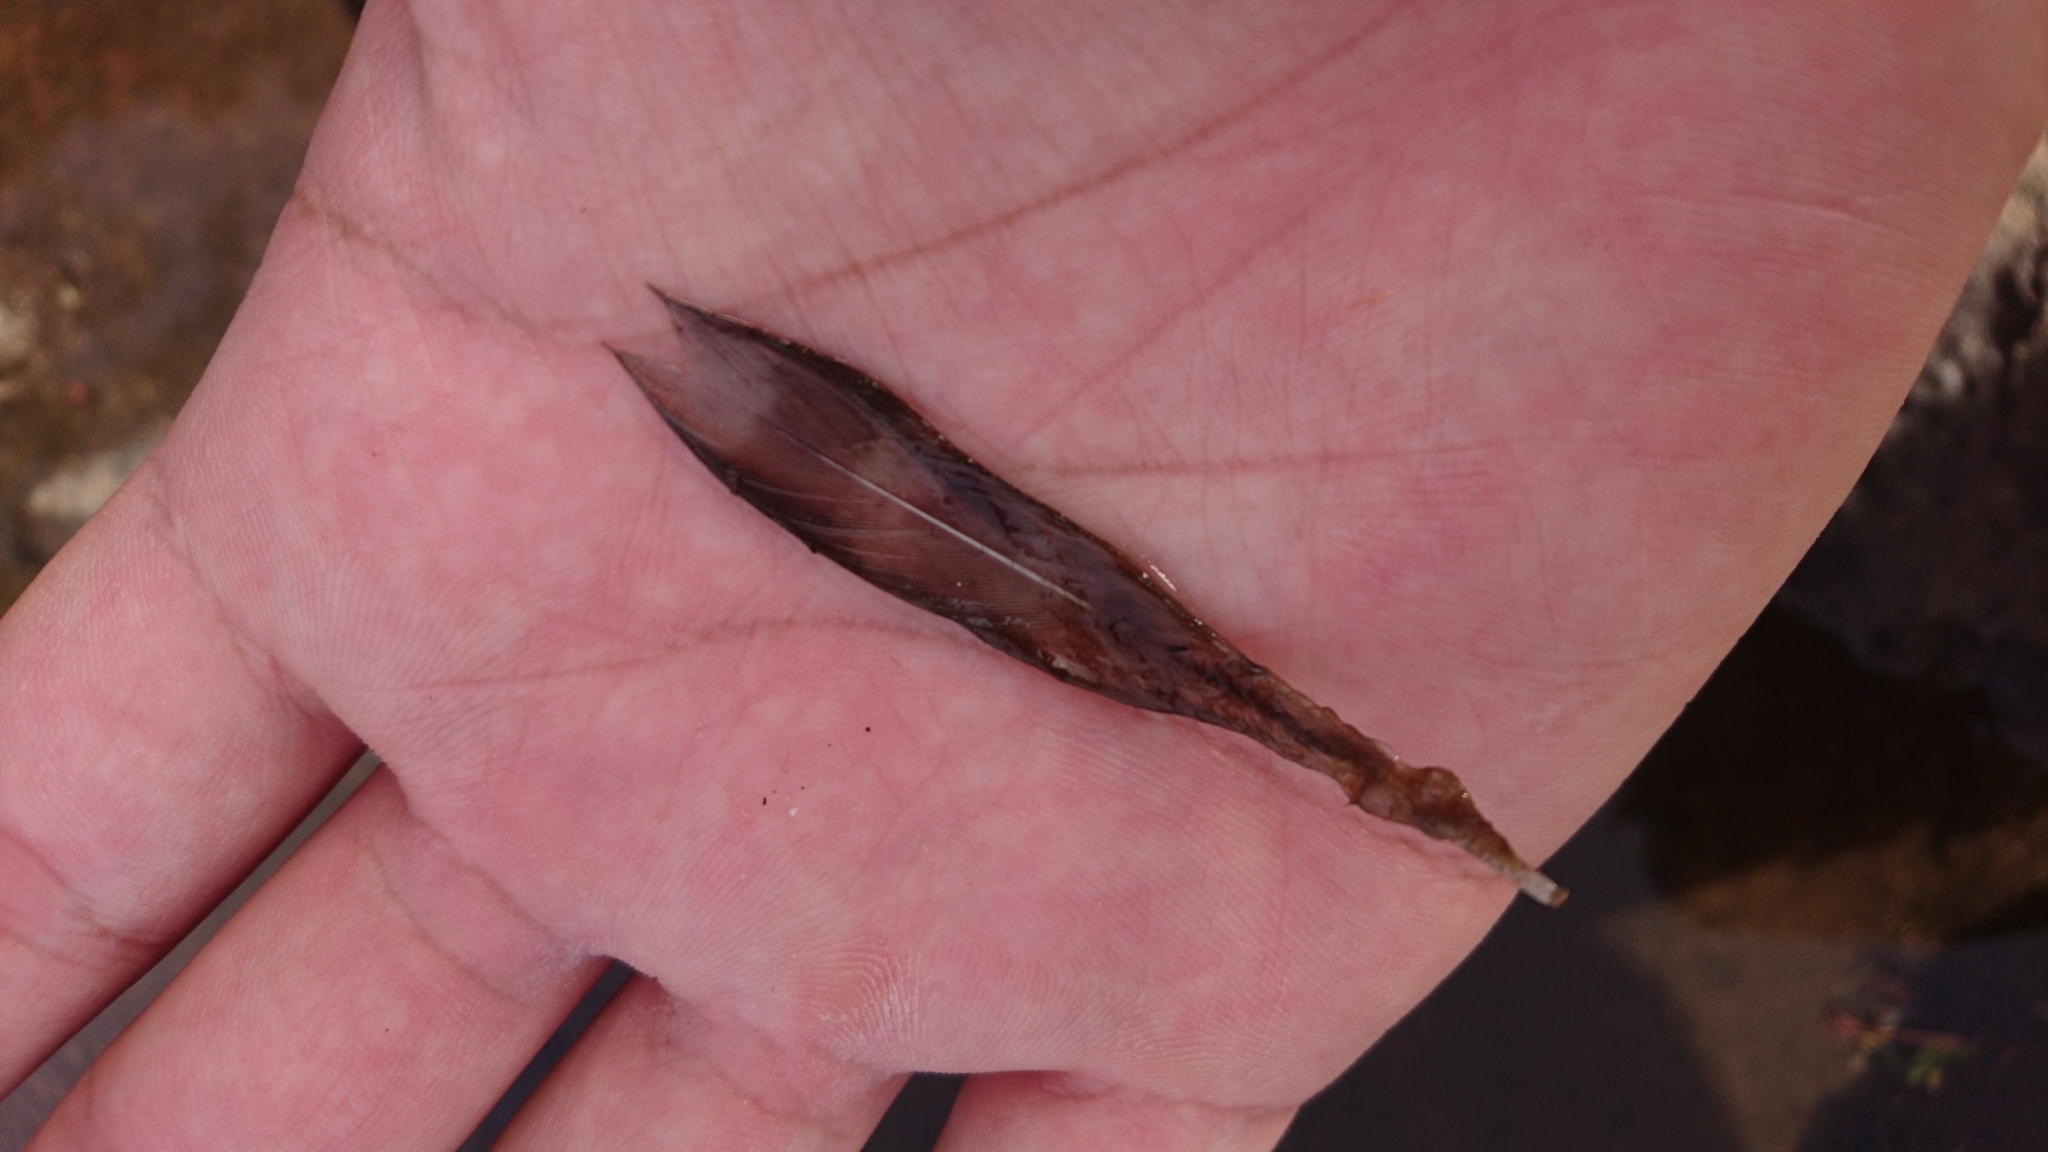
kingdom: Animalia
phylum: Chordata
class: Aves
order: Accipitriformes
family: Accipitridae
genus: Accipiter
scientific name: Accipiter cirrocephalus
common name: Collared sparrowhawk
